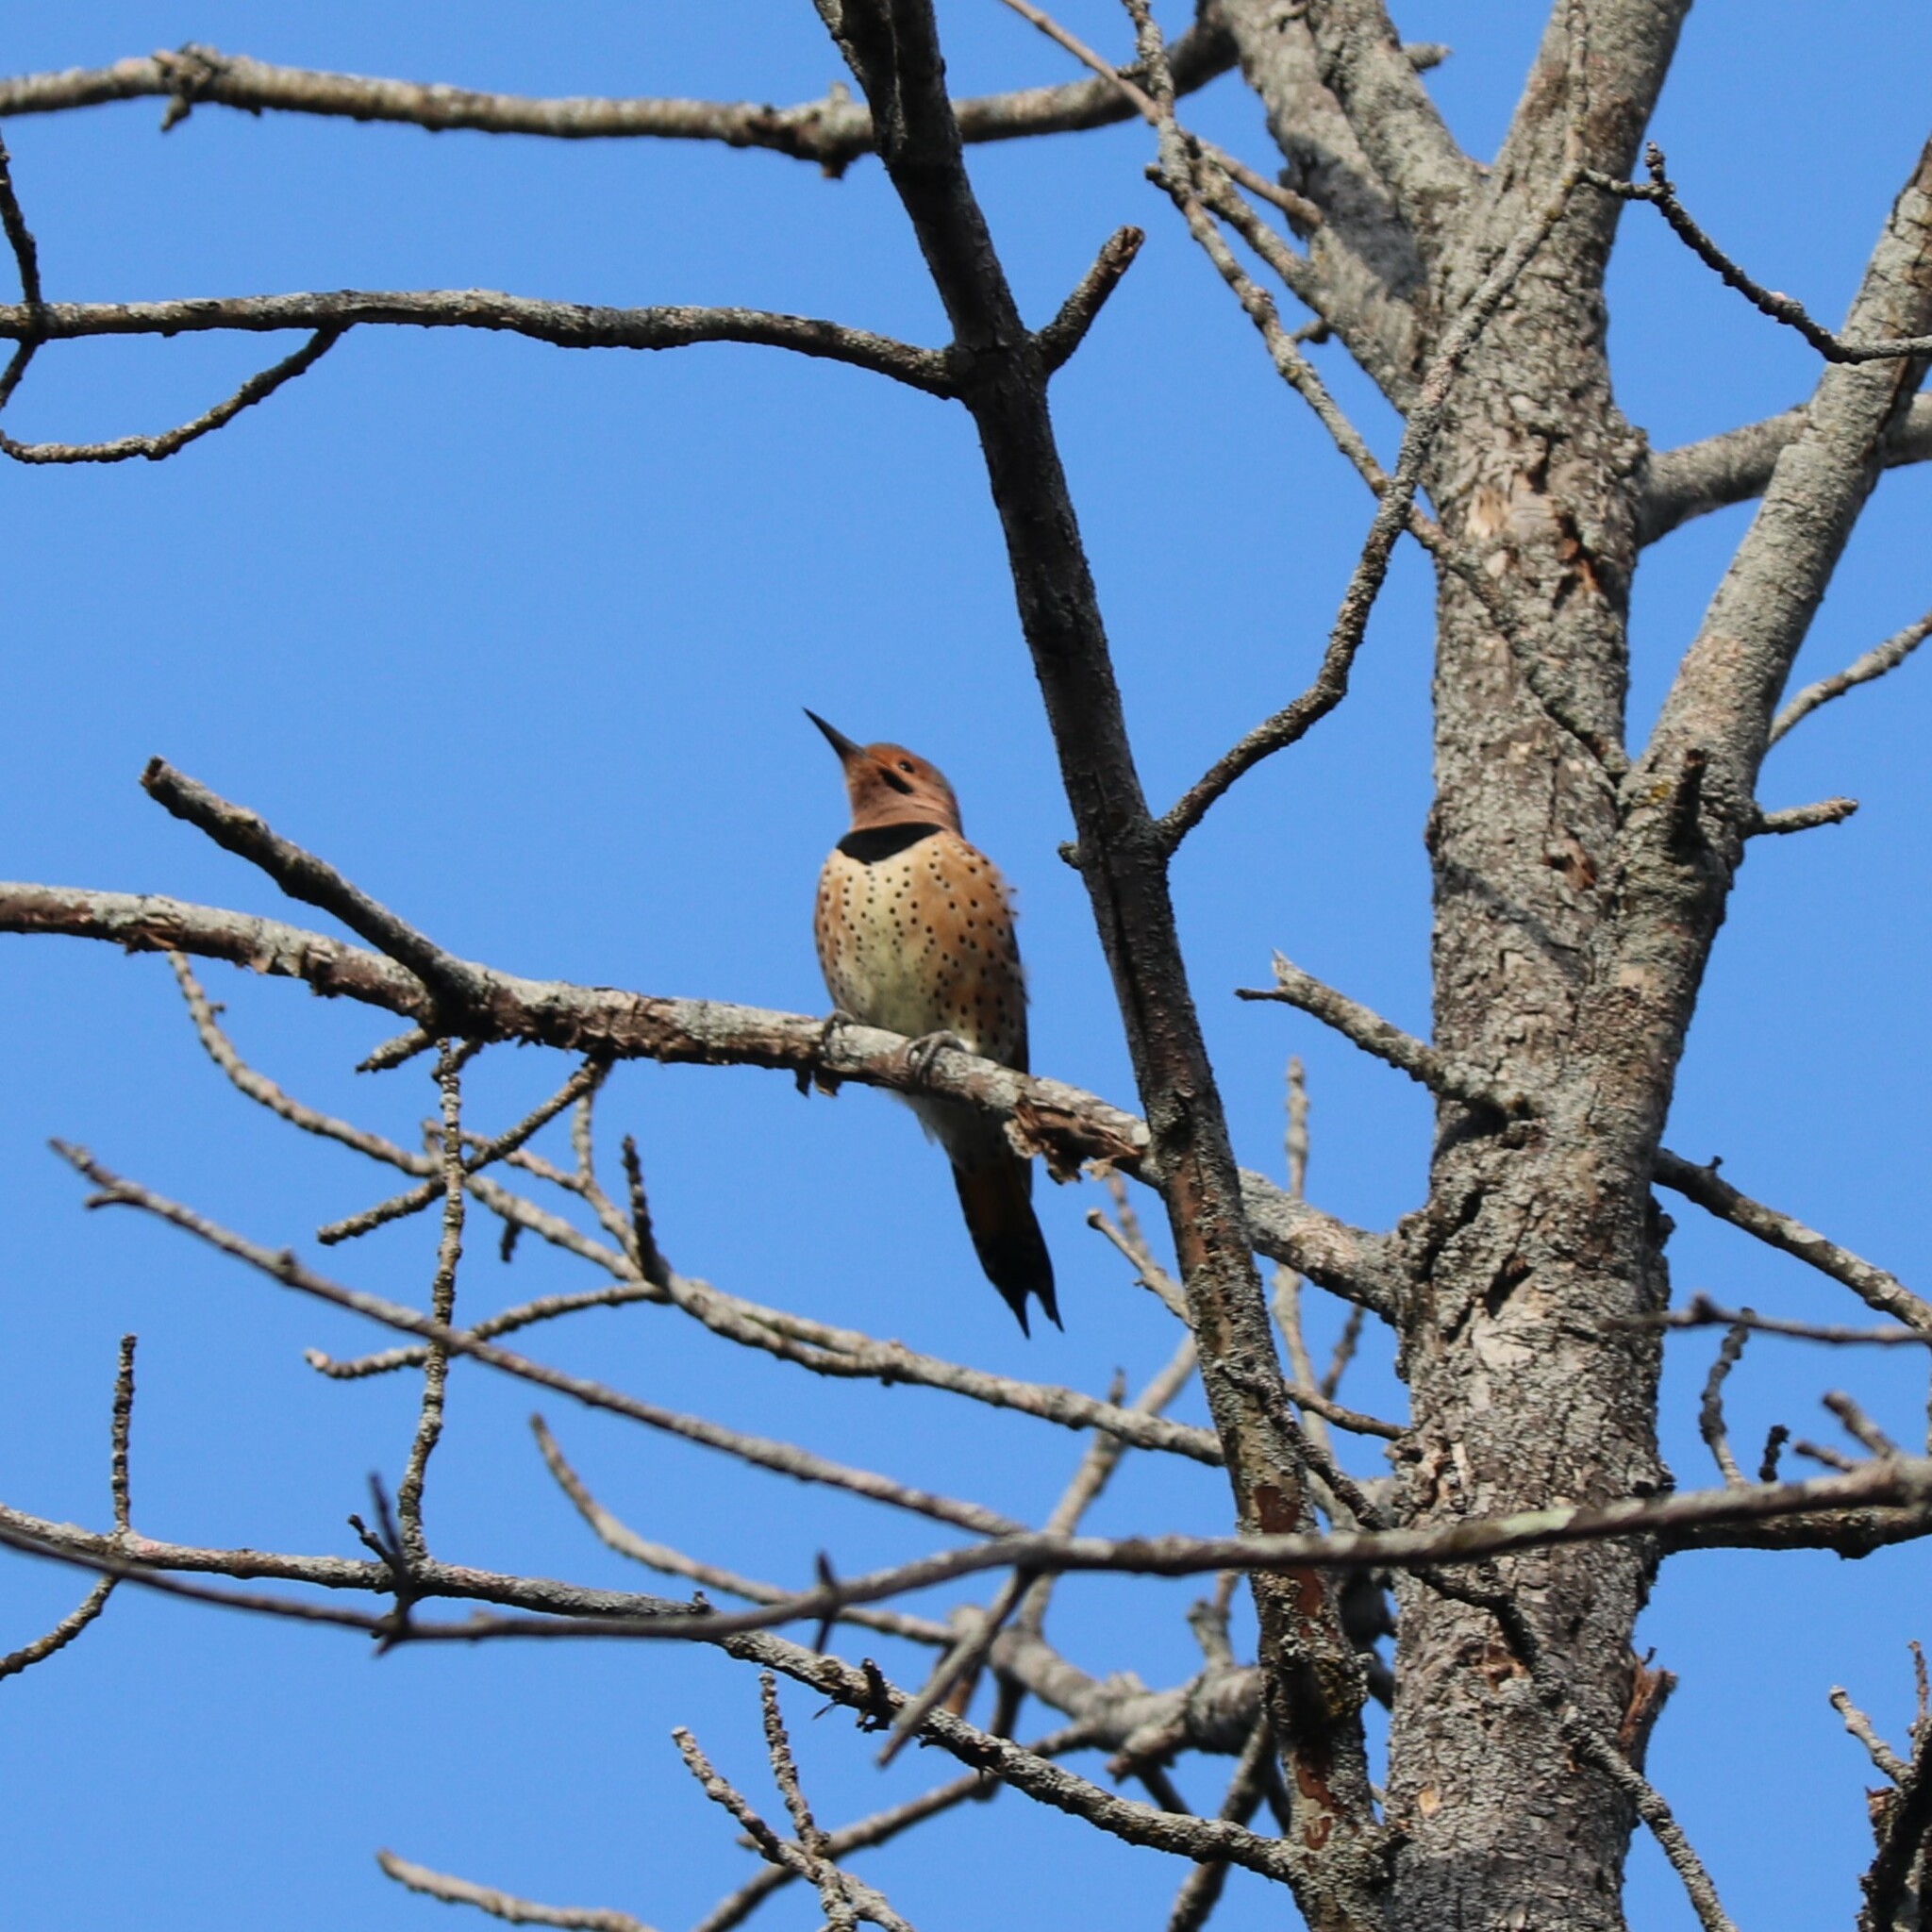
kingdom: Animalia
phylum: Chordata
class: Aves
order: Piciformes
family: Picidae
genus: Colaptes
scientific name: Colaptes auratus
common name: Northern flicker
